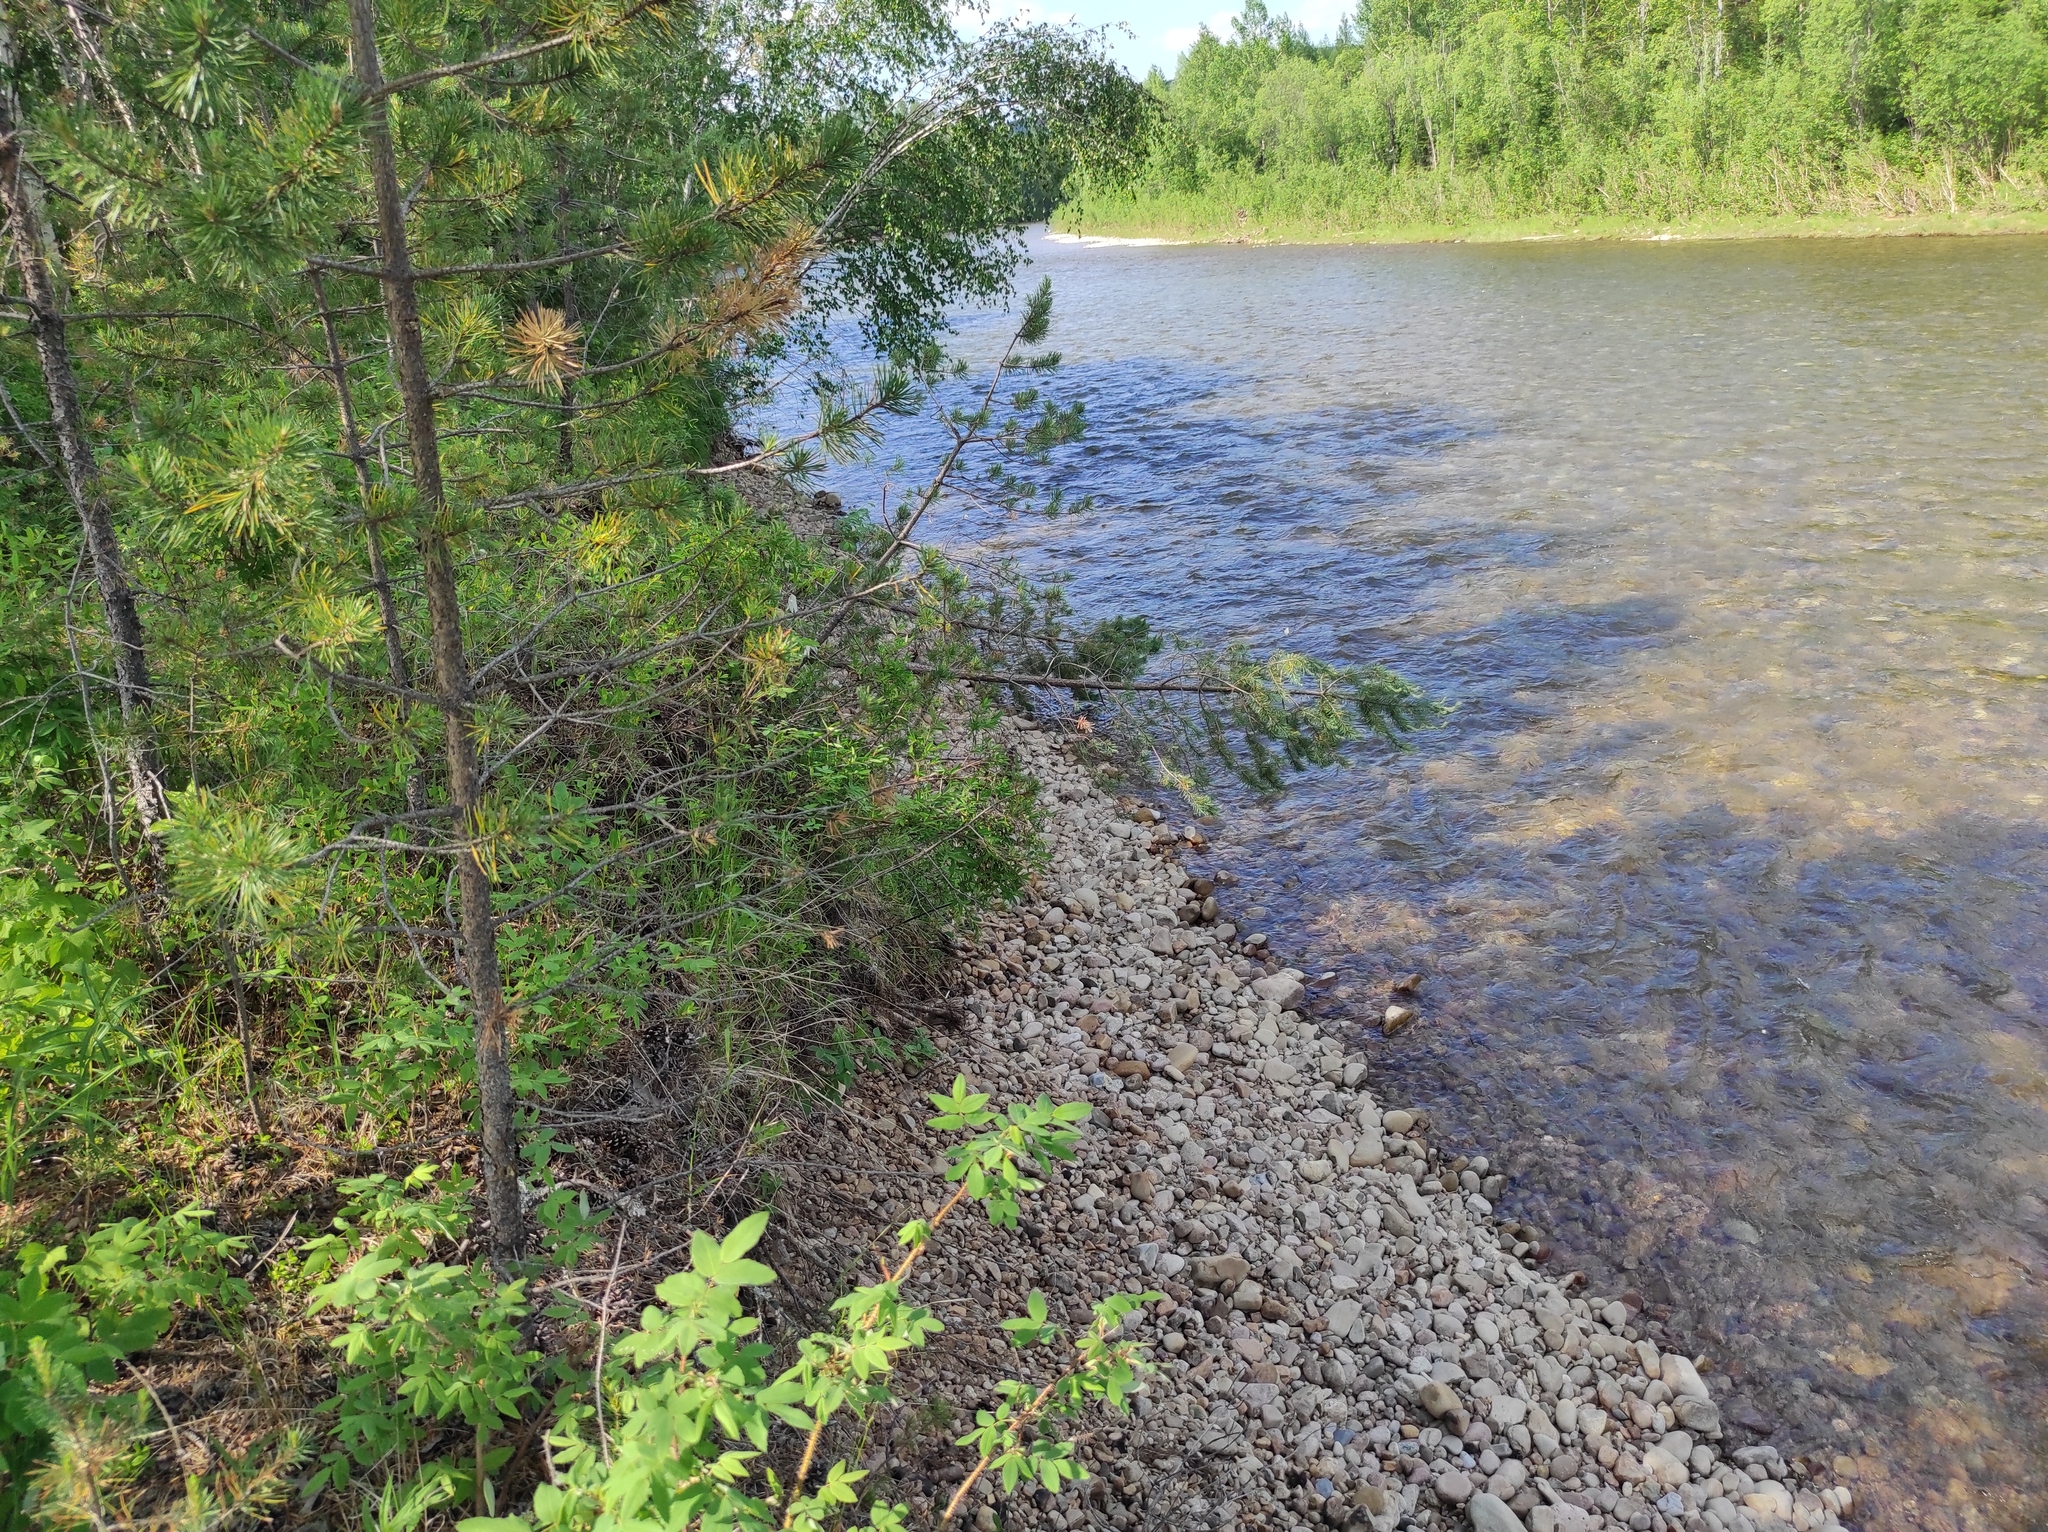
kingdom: Plantae
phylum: Tracheophyta
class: Pinopsida
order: Pinales
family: Pinaceae
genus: Pinus
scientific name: Pinus sylvestris
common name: Scots pine
